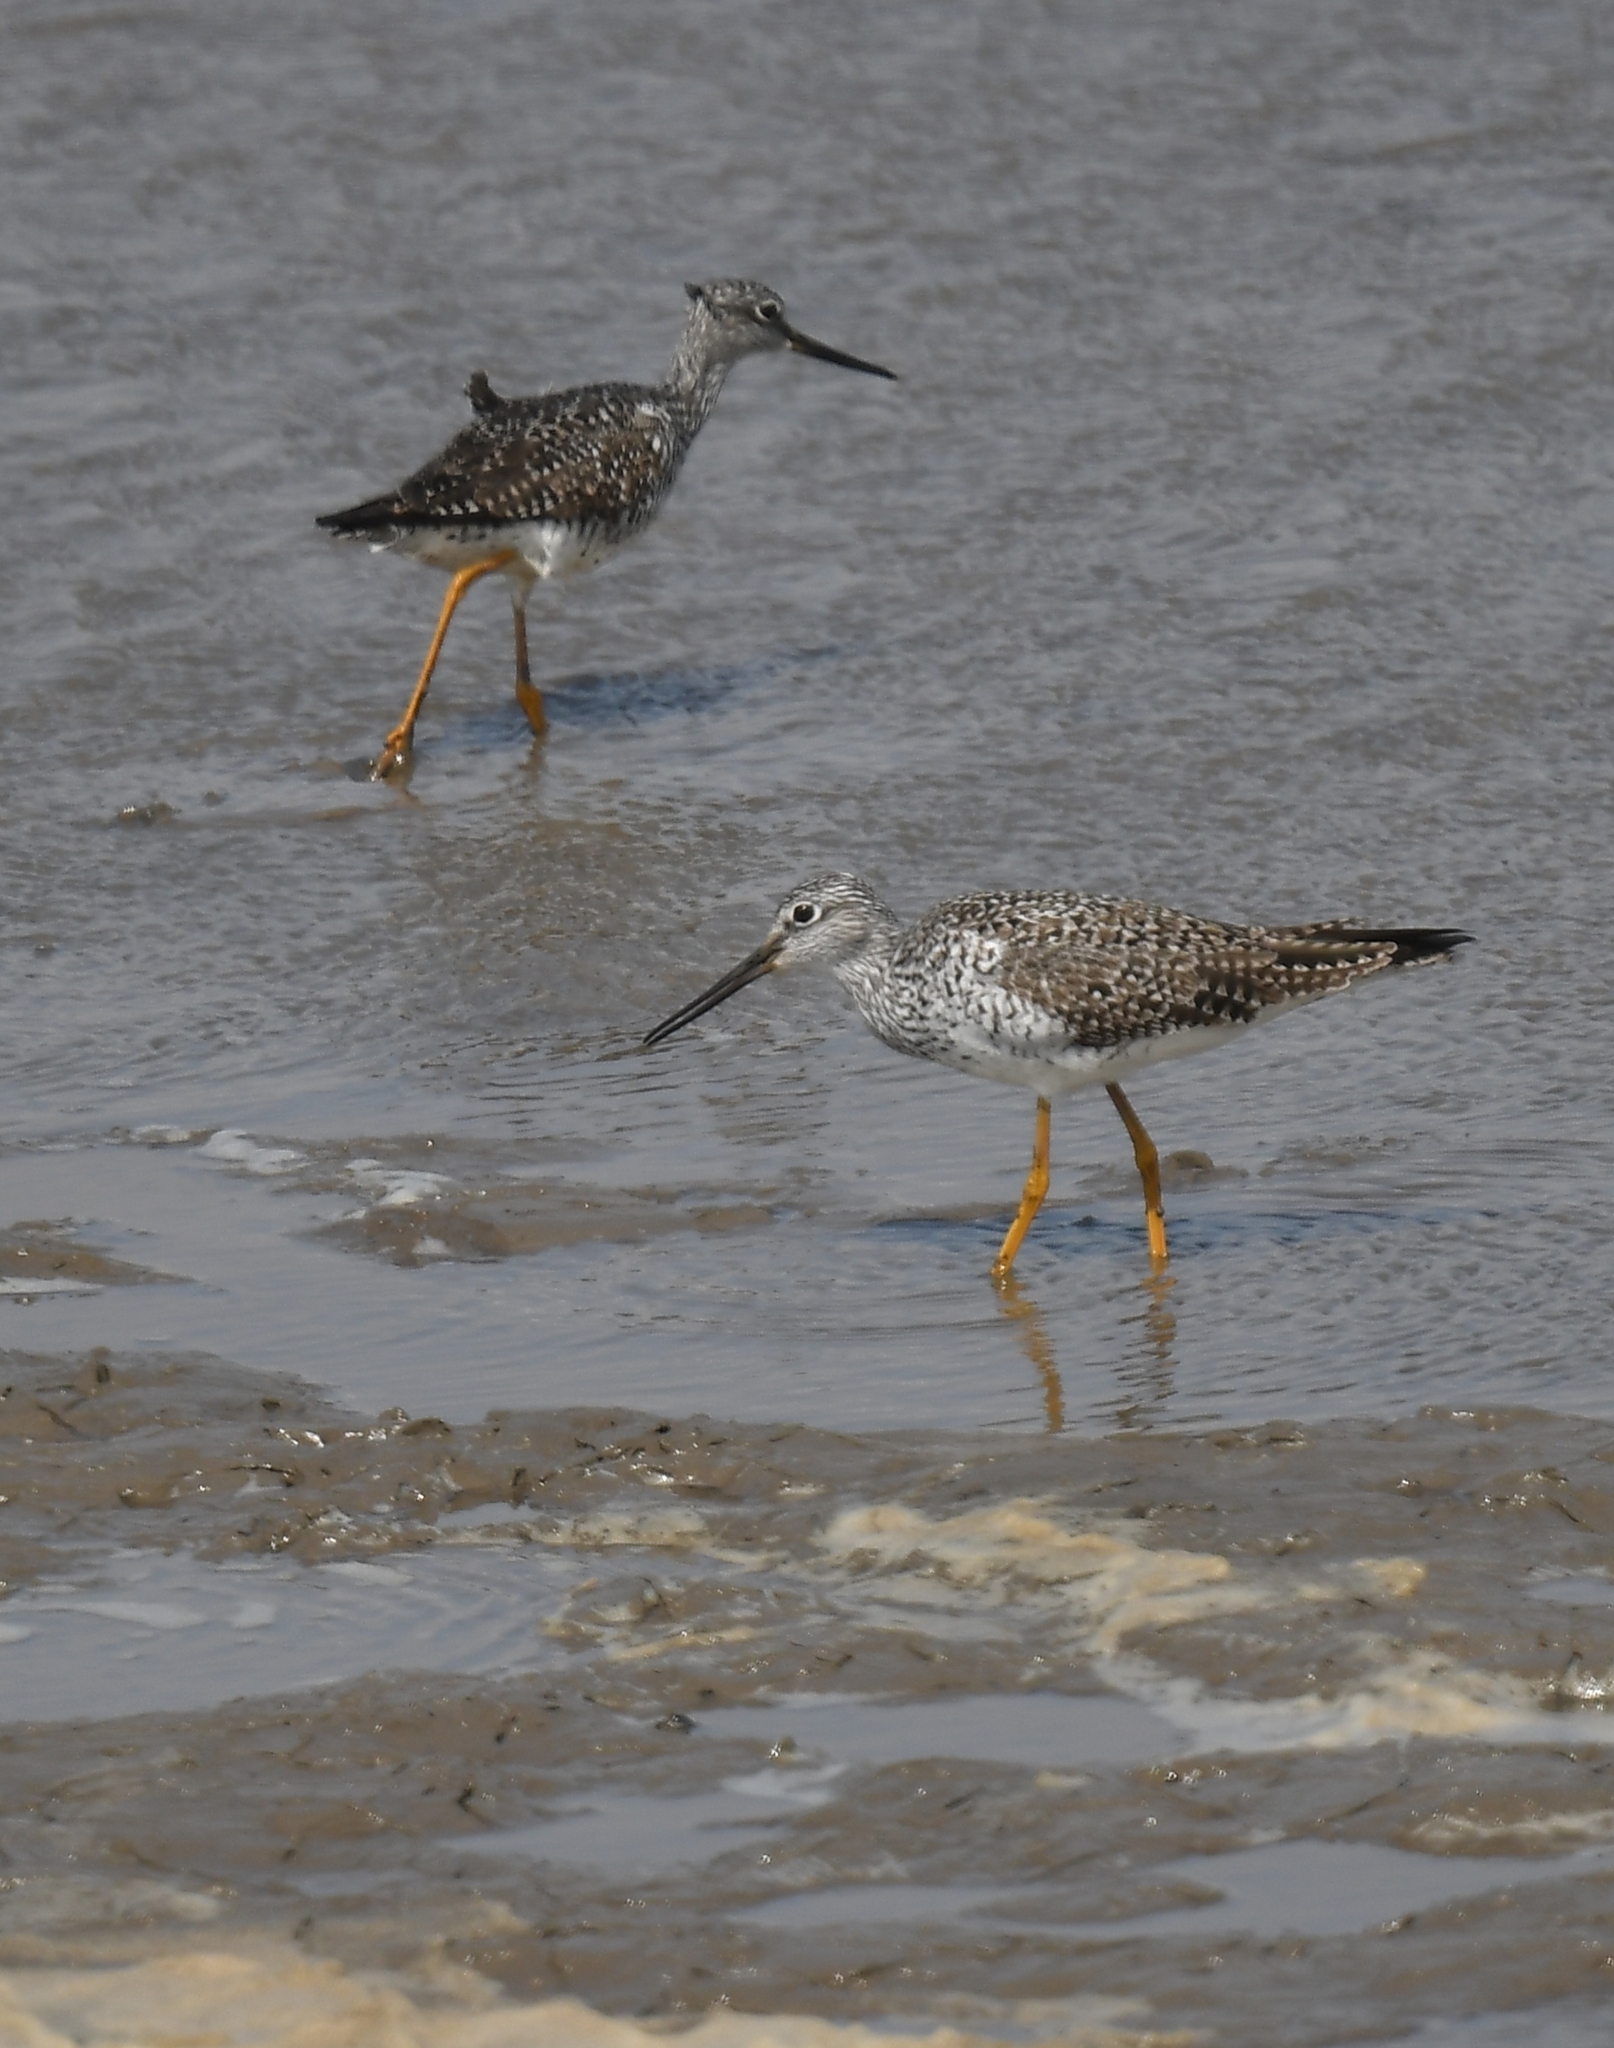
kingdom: Animalia
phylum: Chordata
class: Aves
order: Charadriiformes
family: Scolopacidae
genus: Tringa
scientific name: Tringa melanoleuca
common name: Greater yellowlegs
